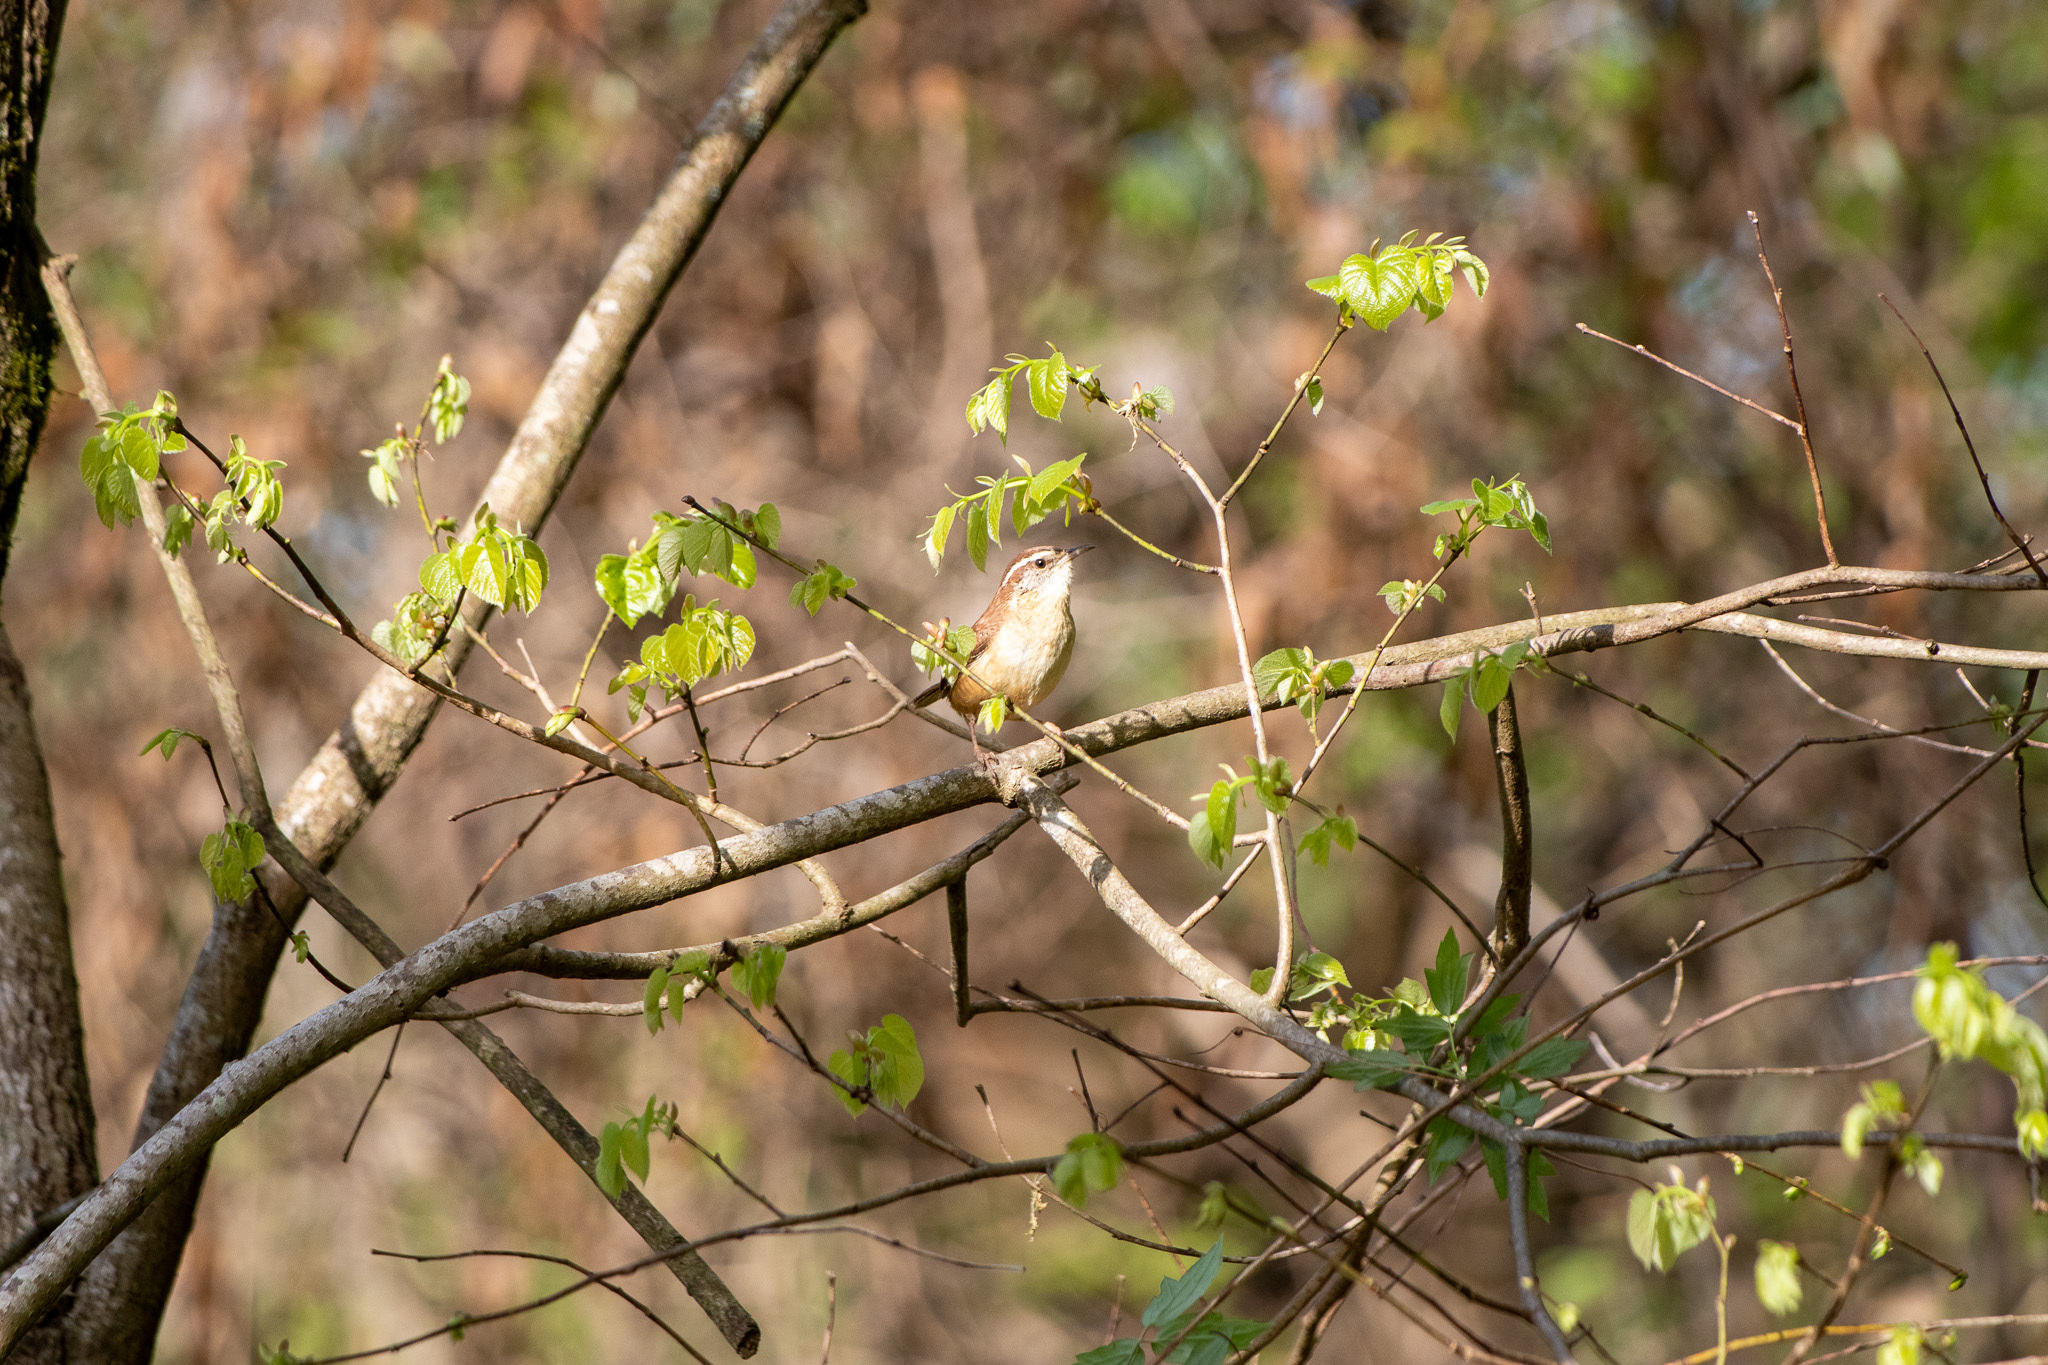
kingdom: Animalia
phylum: Chordata
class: Aves
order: Passeriformes
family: Troglodytidae
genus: Thryothorus
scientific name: Thryothorus ludovicianus
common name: Carolina wren
